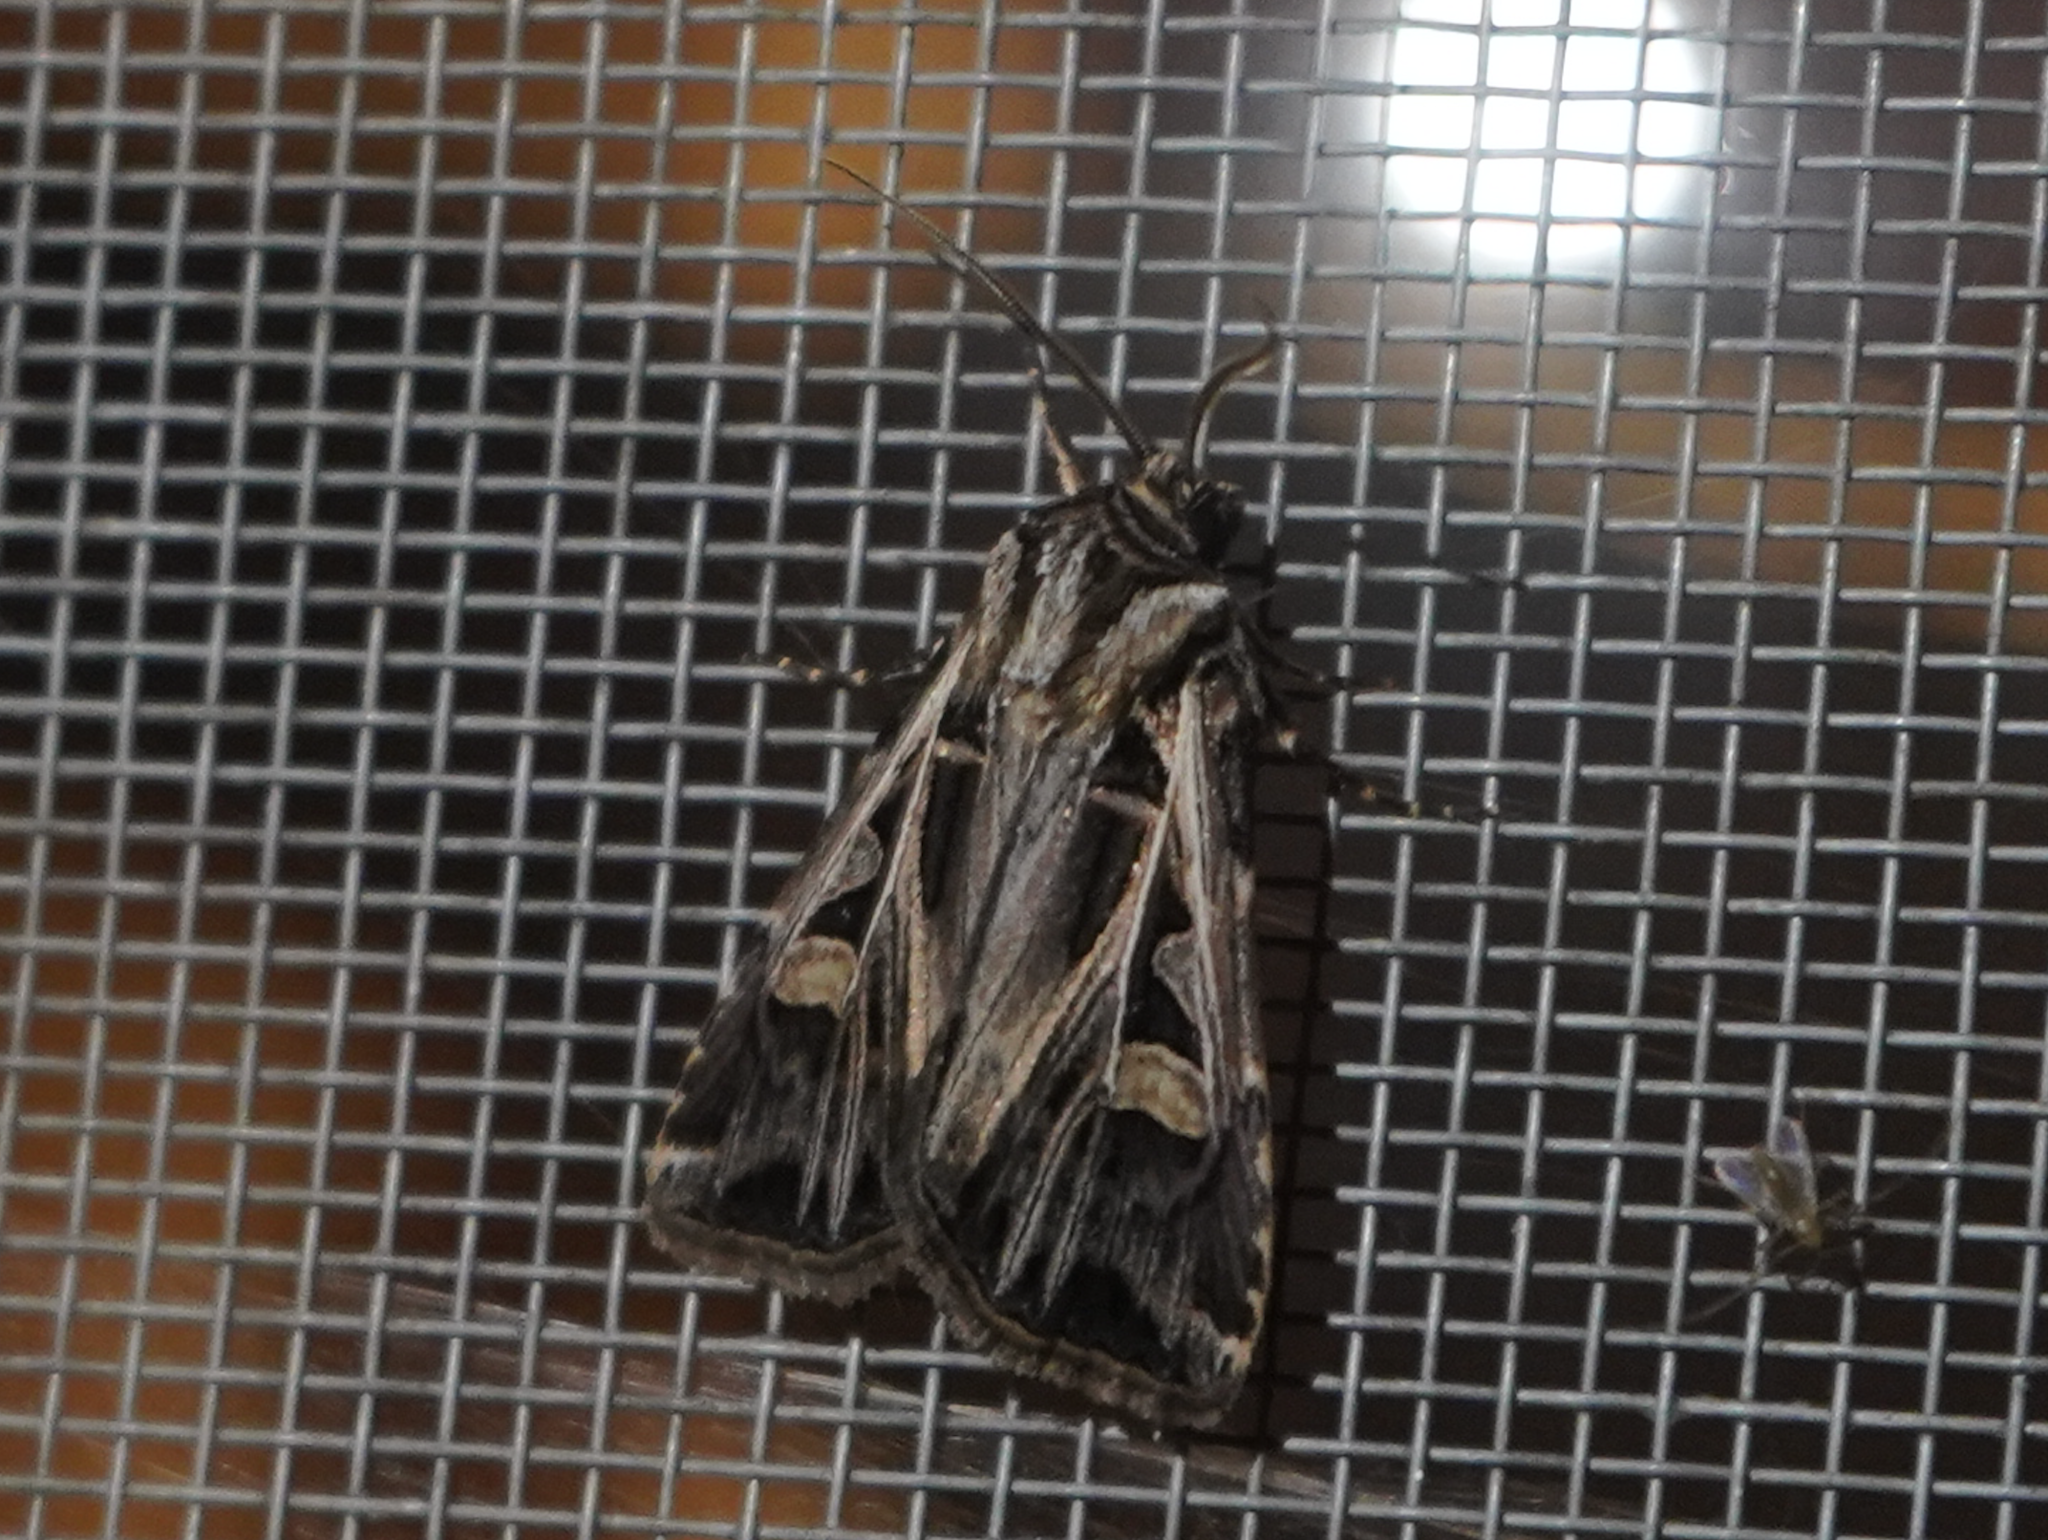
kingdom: Animalia
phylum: Arthropoda
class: Insecta
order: Lepidoptera
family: Noctuidae
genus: Feltia
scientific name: Feltia jaculifera
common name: Dingy cutworm moth
